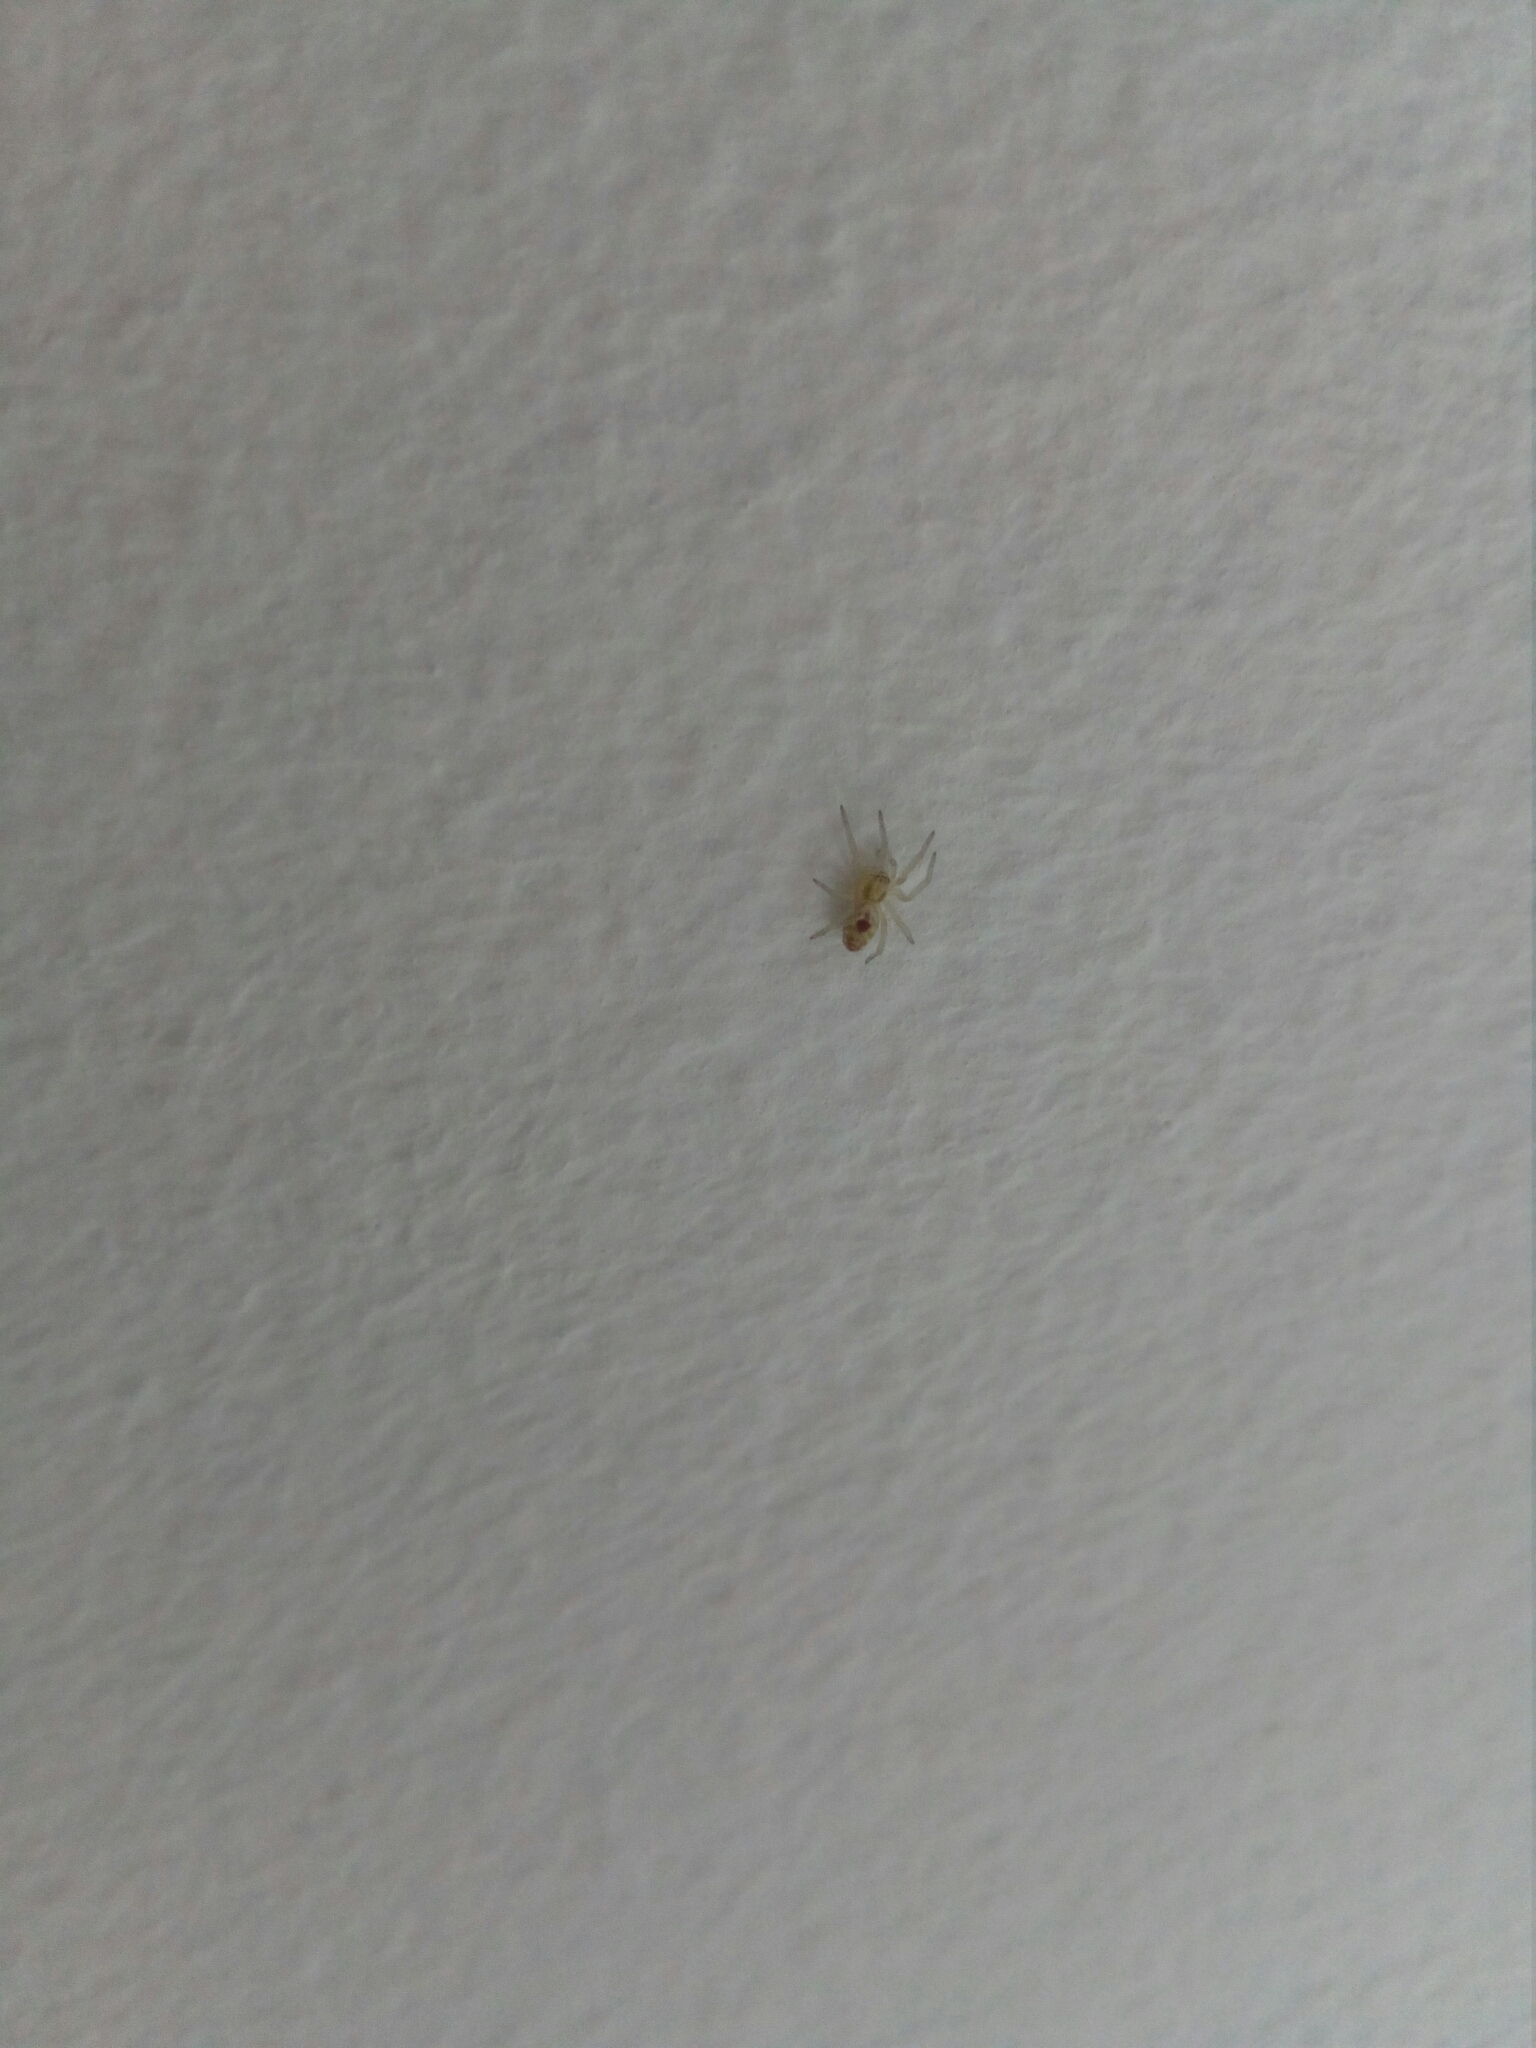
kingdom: Animalia
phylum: Arthropoda
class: Arachnida
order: Araneae
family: Dictynidae
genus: Nigma
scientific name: Nigma puella
